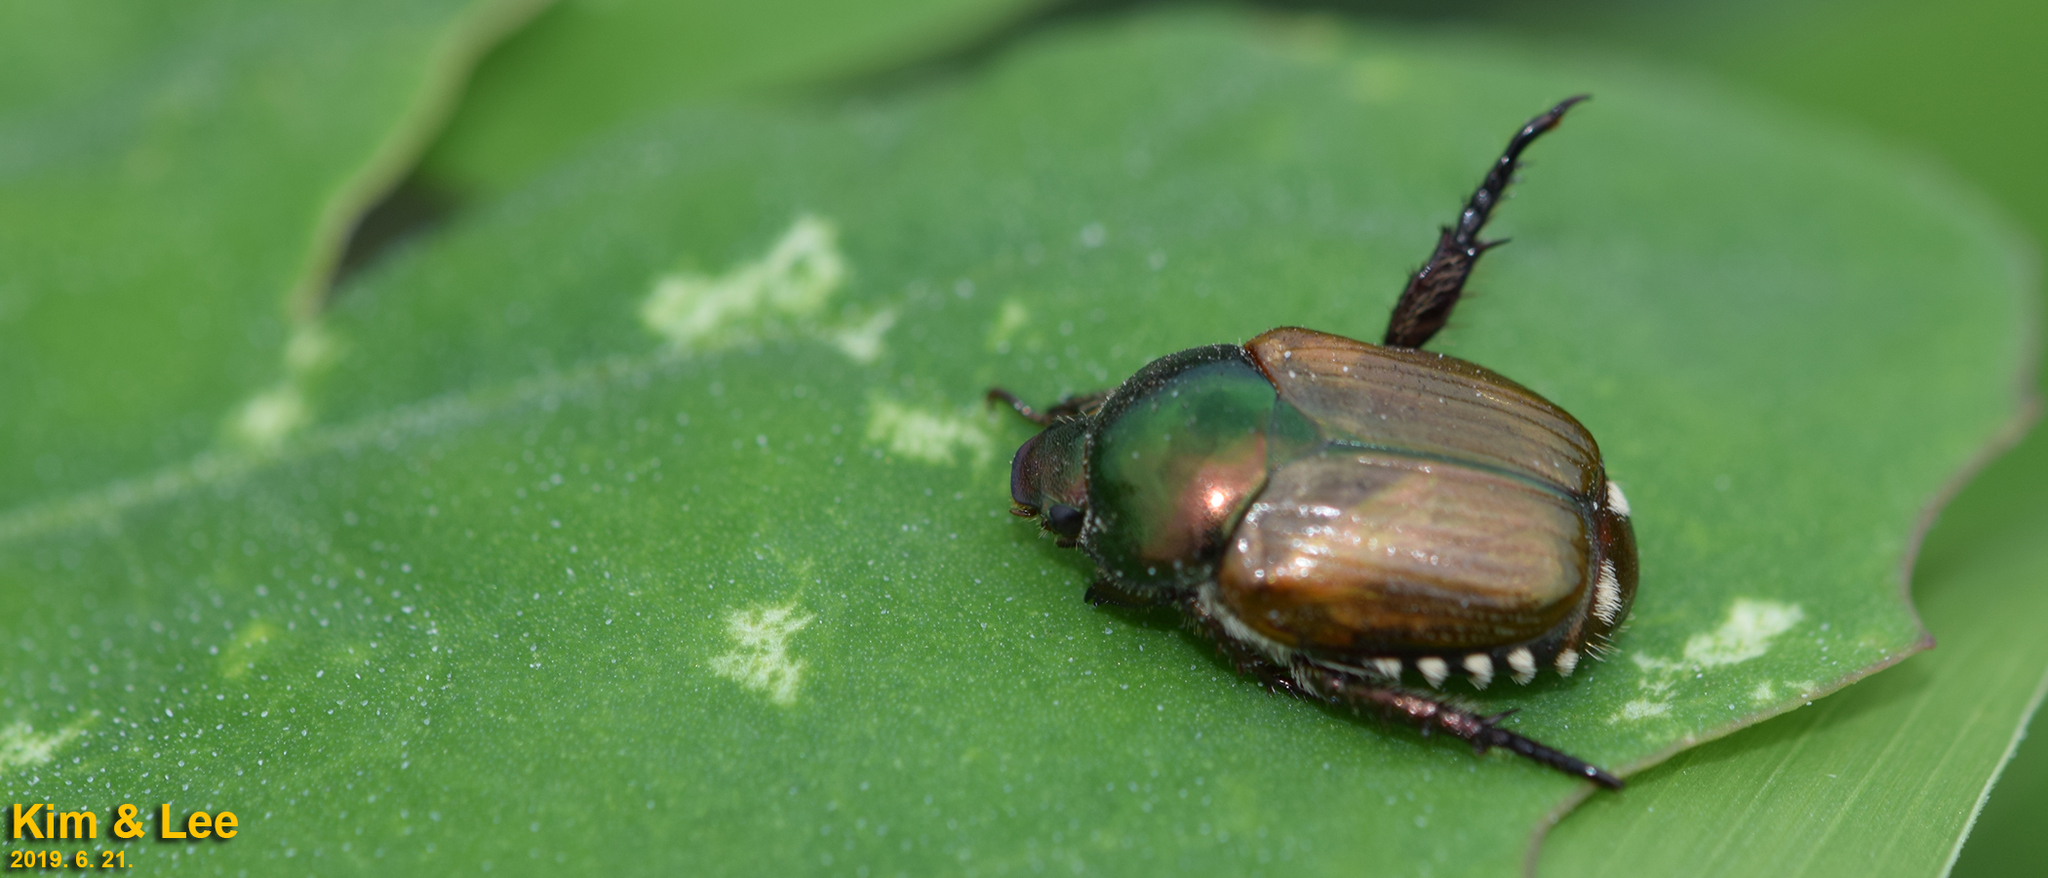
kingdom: Animalia
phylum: Arthropoda
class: Insecta
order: Coleoptera
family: Scarabaeidae
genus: Popillia
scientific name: Popillia quadriguttata
